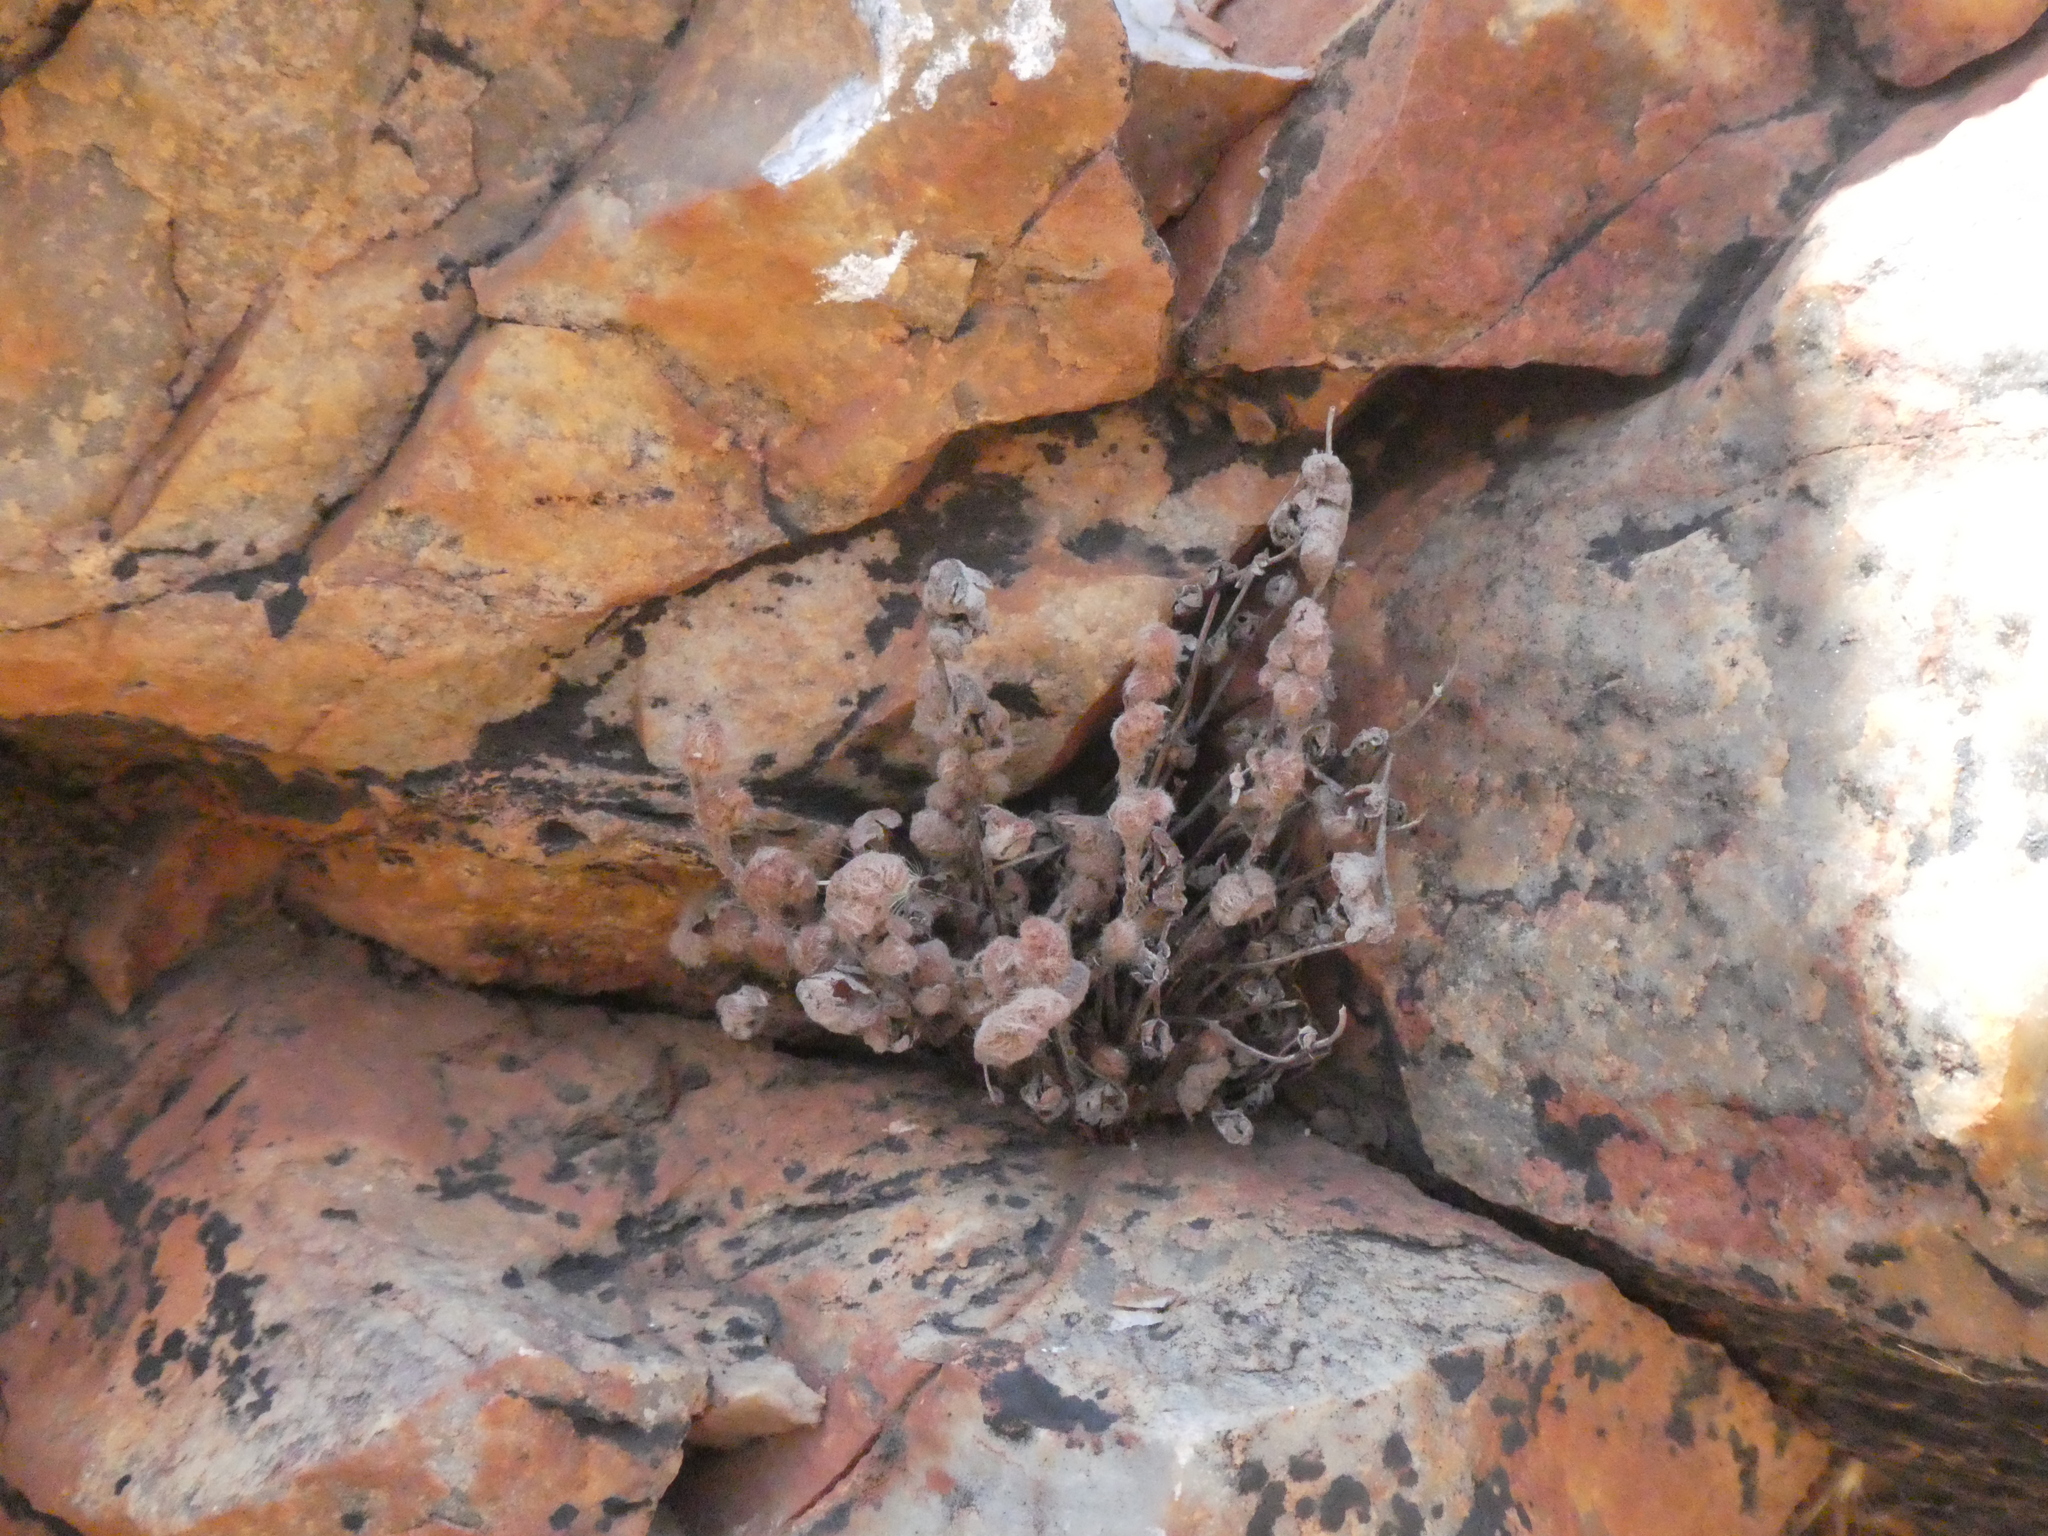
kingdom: Plantae
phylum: Tracheophyta
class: Polypodiopsida
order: Polypodiales
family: Pteridaceae
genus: Cheilanthes
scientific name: Cheilanthes lasiophylla
